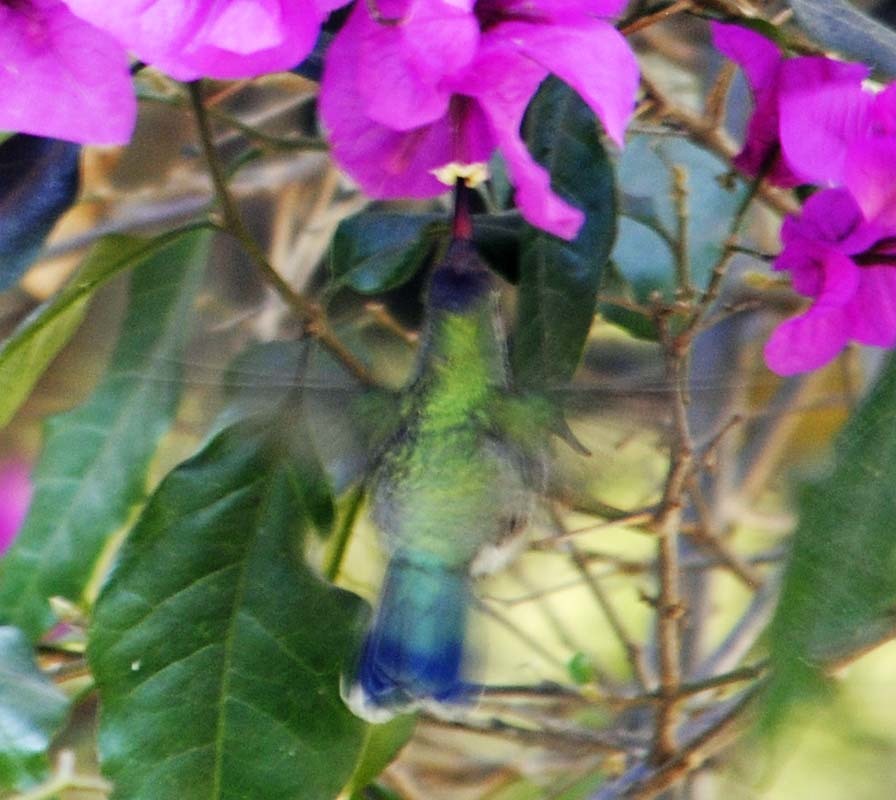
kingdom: Animalia
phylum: Chordata
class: Aves
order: Apodiformes
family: Trochilidae
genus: Cynanthus
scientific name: Cynanthus latirostris
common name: Broad-billed hummingbird
